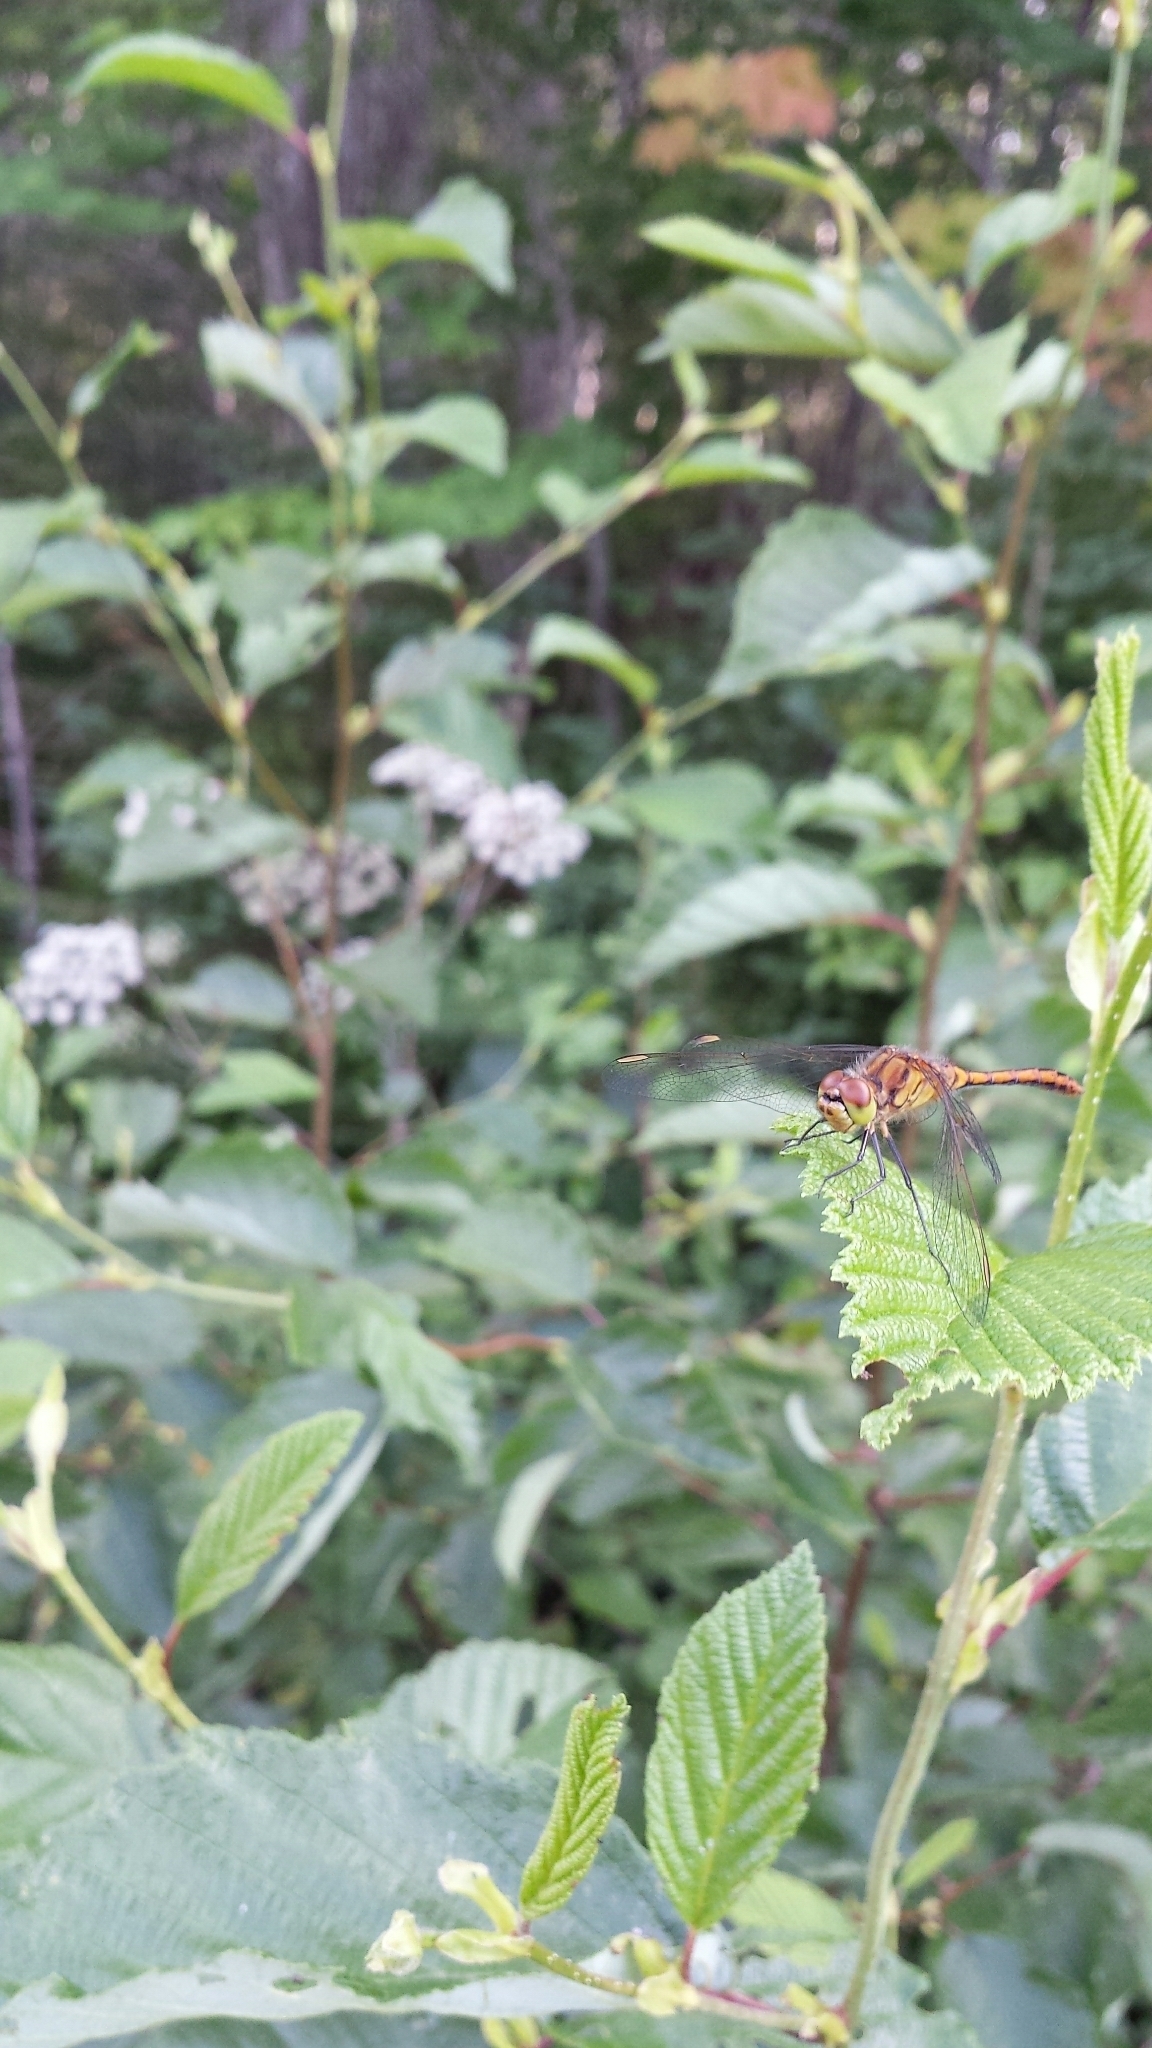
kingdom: Animalia
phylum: Arthropoda
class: Insecta
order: Odonata
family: Libellulidae
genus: Sympetrum
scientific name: Sympetrum costiferum
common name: Saffron-winged meadowhawk
